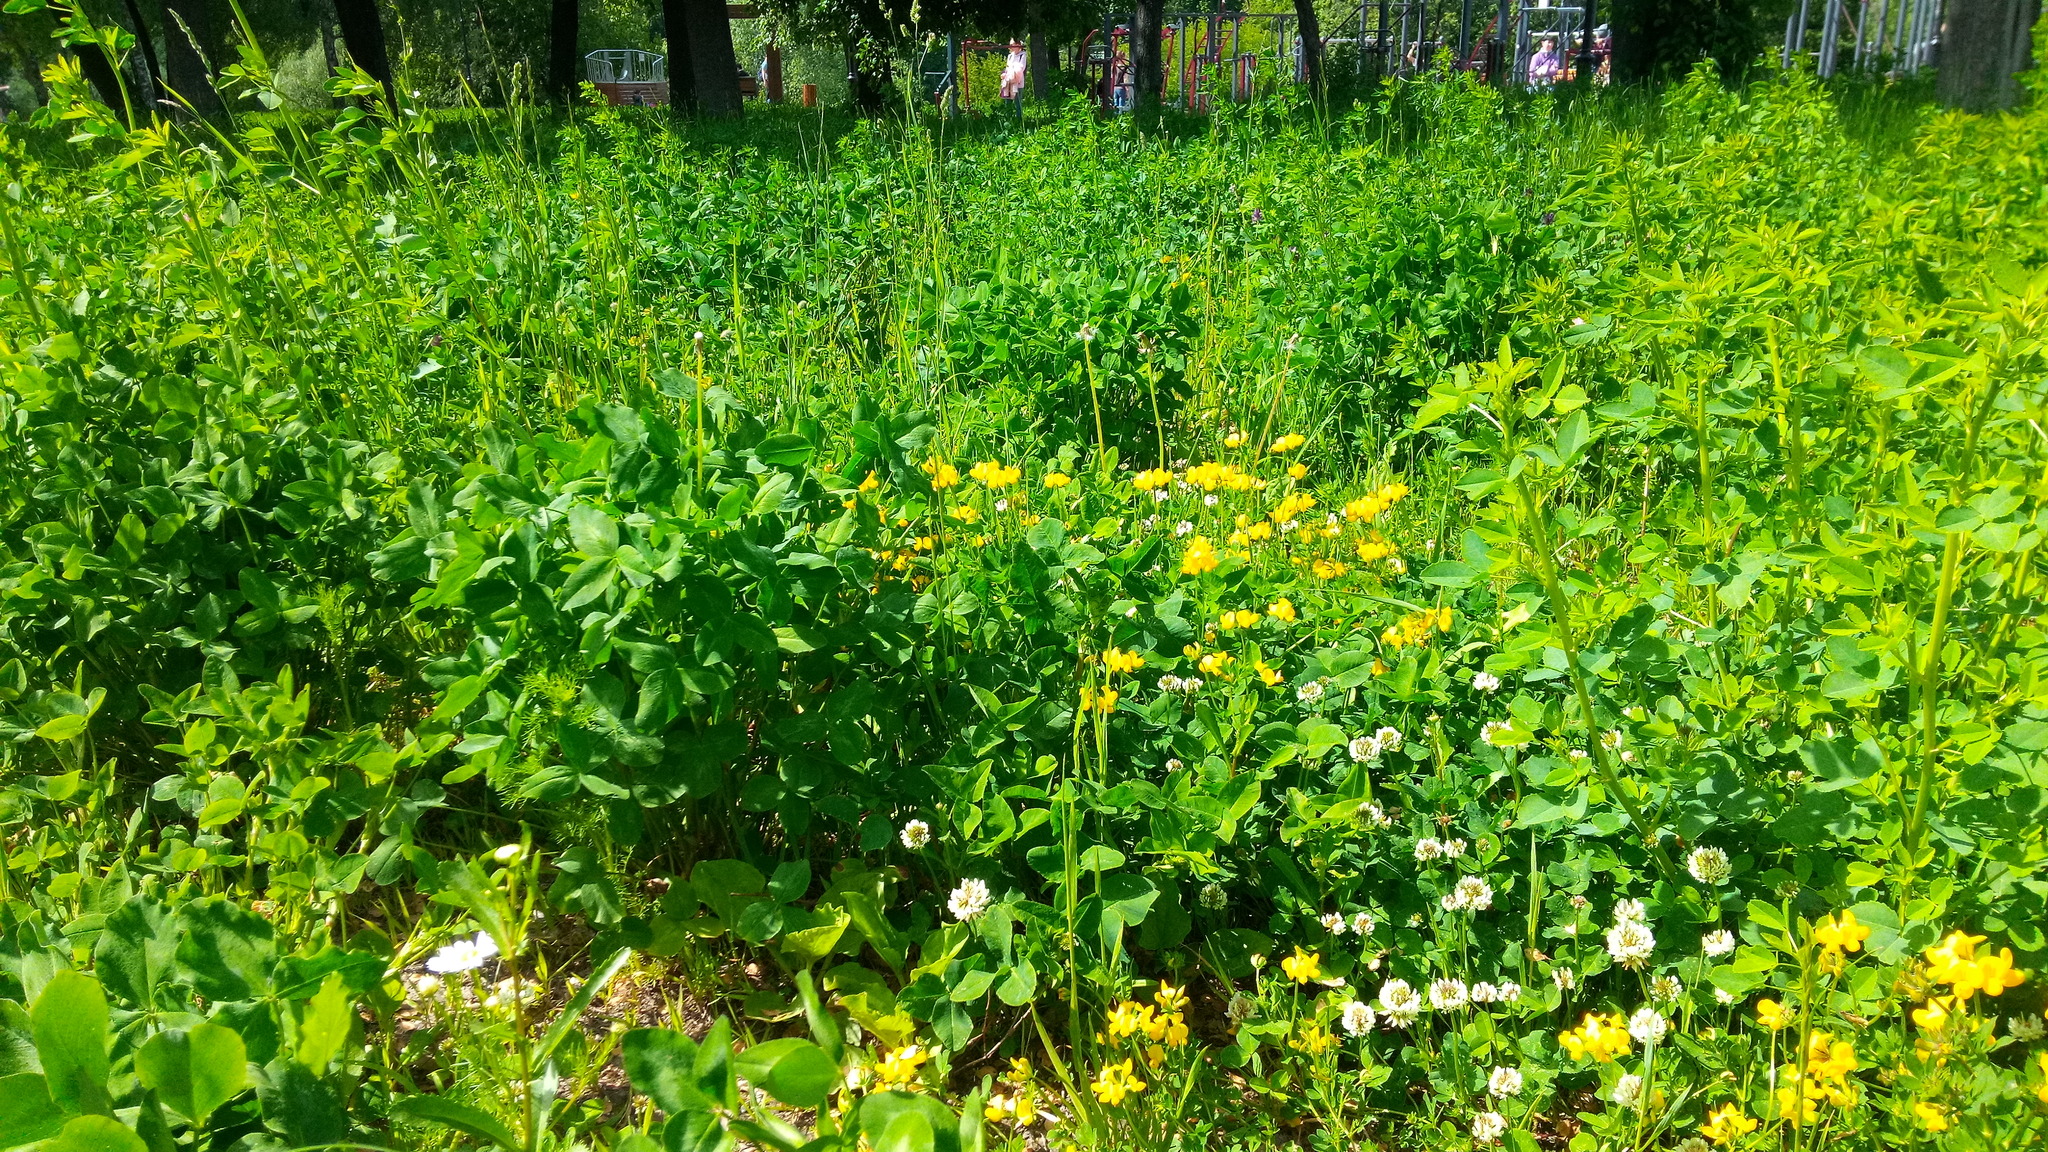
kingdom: Plantae
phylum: Tracheophyta
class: Magnoliopsida
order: Fabales
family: Fabaceae
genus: Lotus
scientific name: Lotus corniculatus
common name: Common bird's-foot-trefoil
